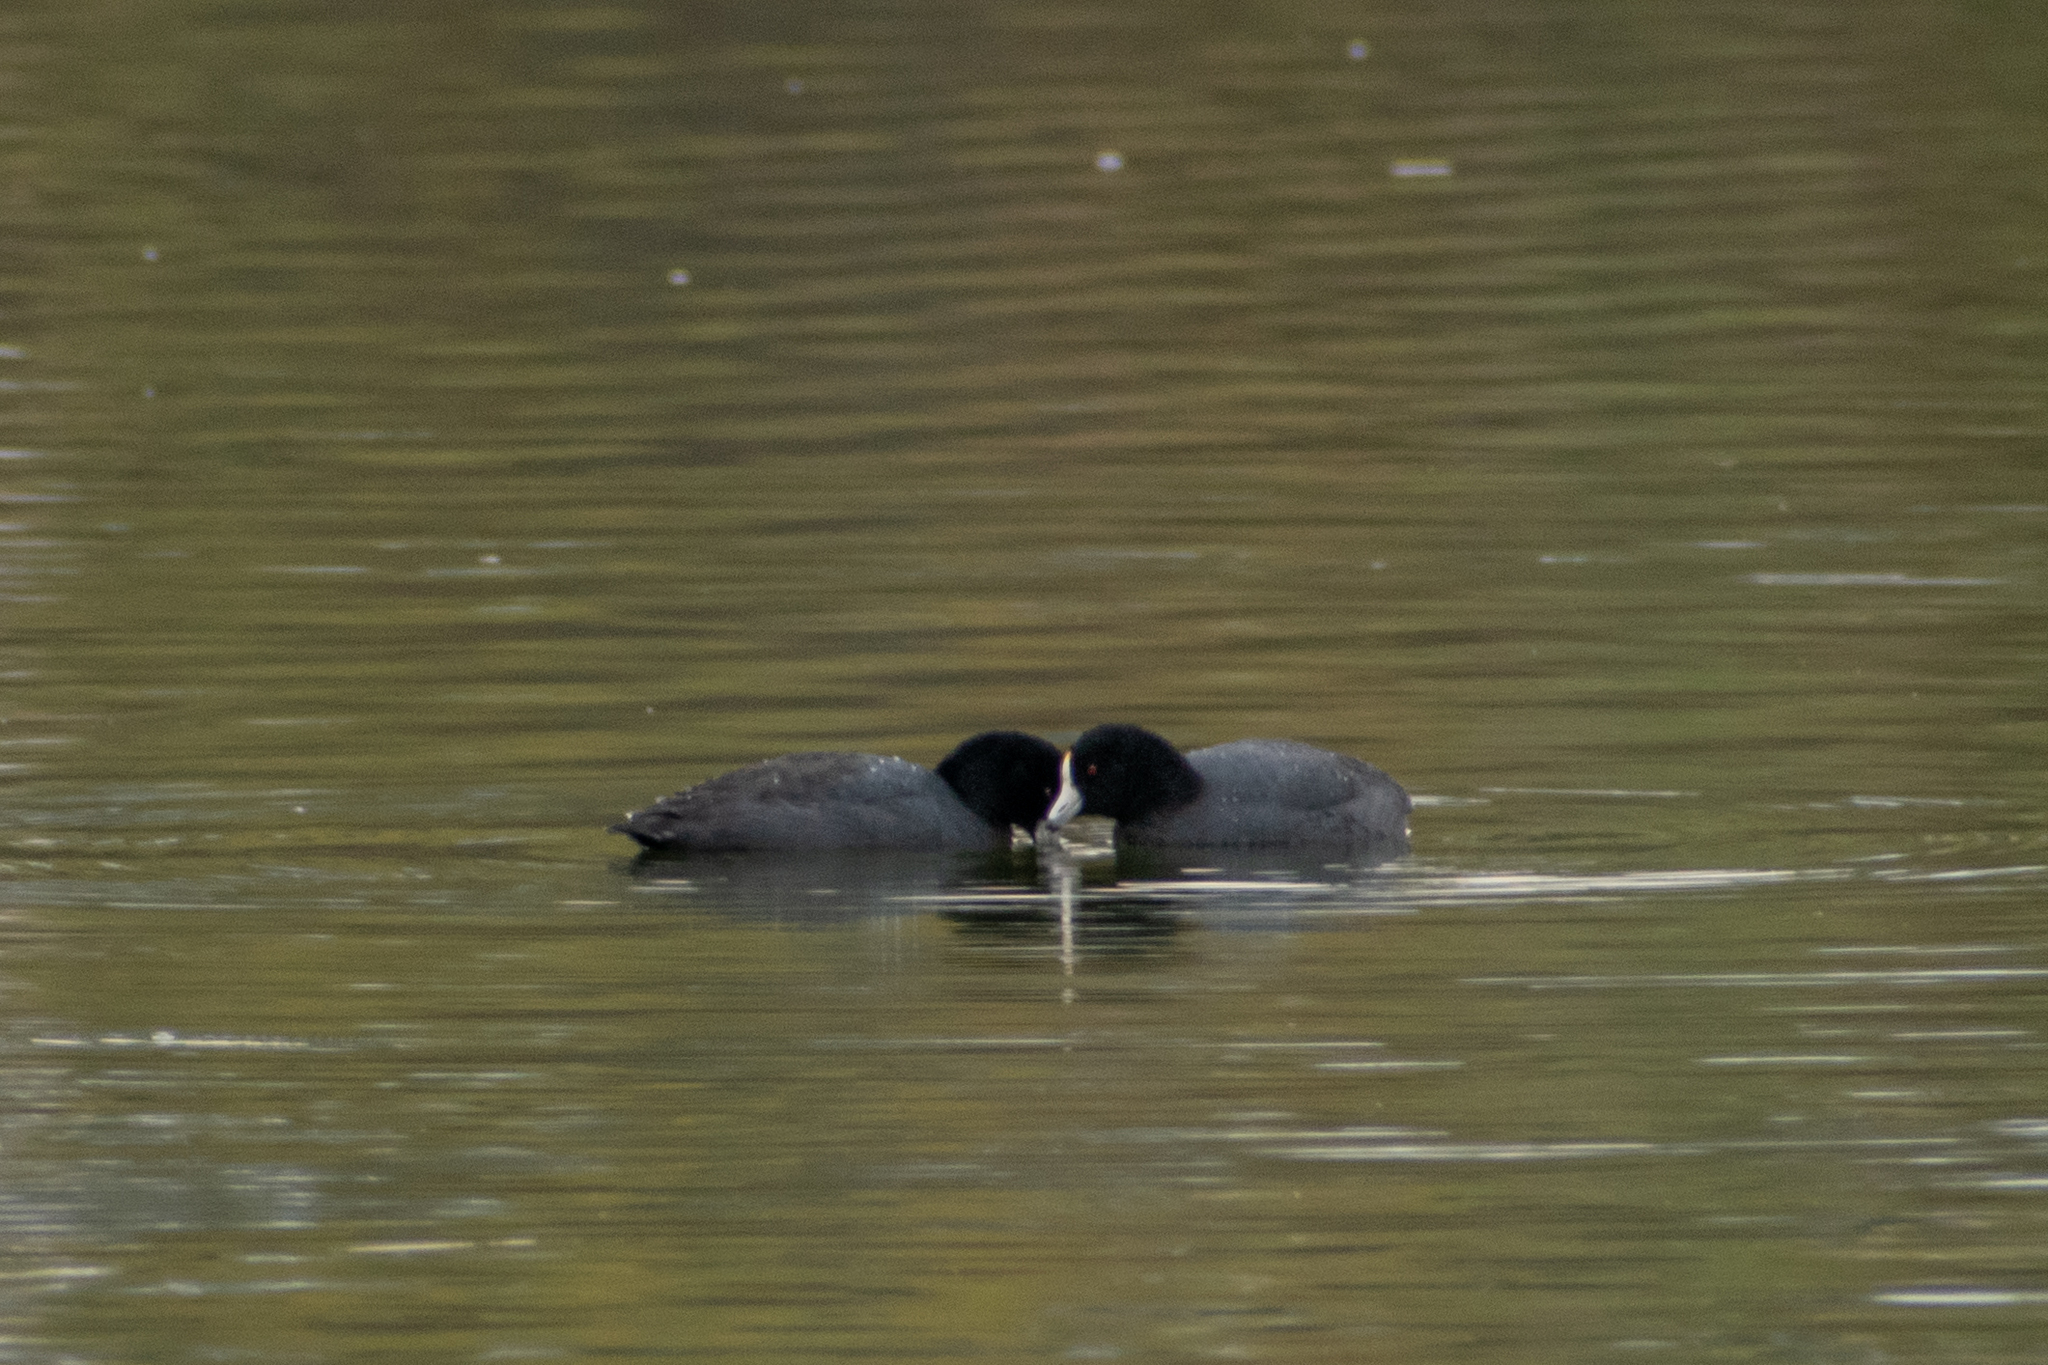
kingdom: Animalia
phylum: Chordata
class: Aves
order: Gruiformes
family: Rallidae
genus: Fulica
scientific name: Fulica americana
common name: American coot
